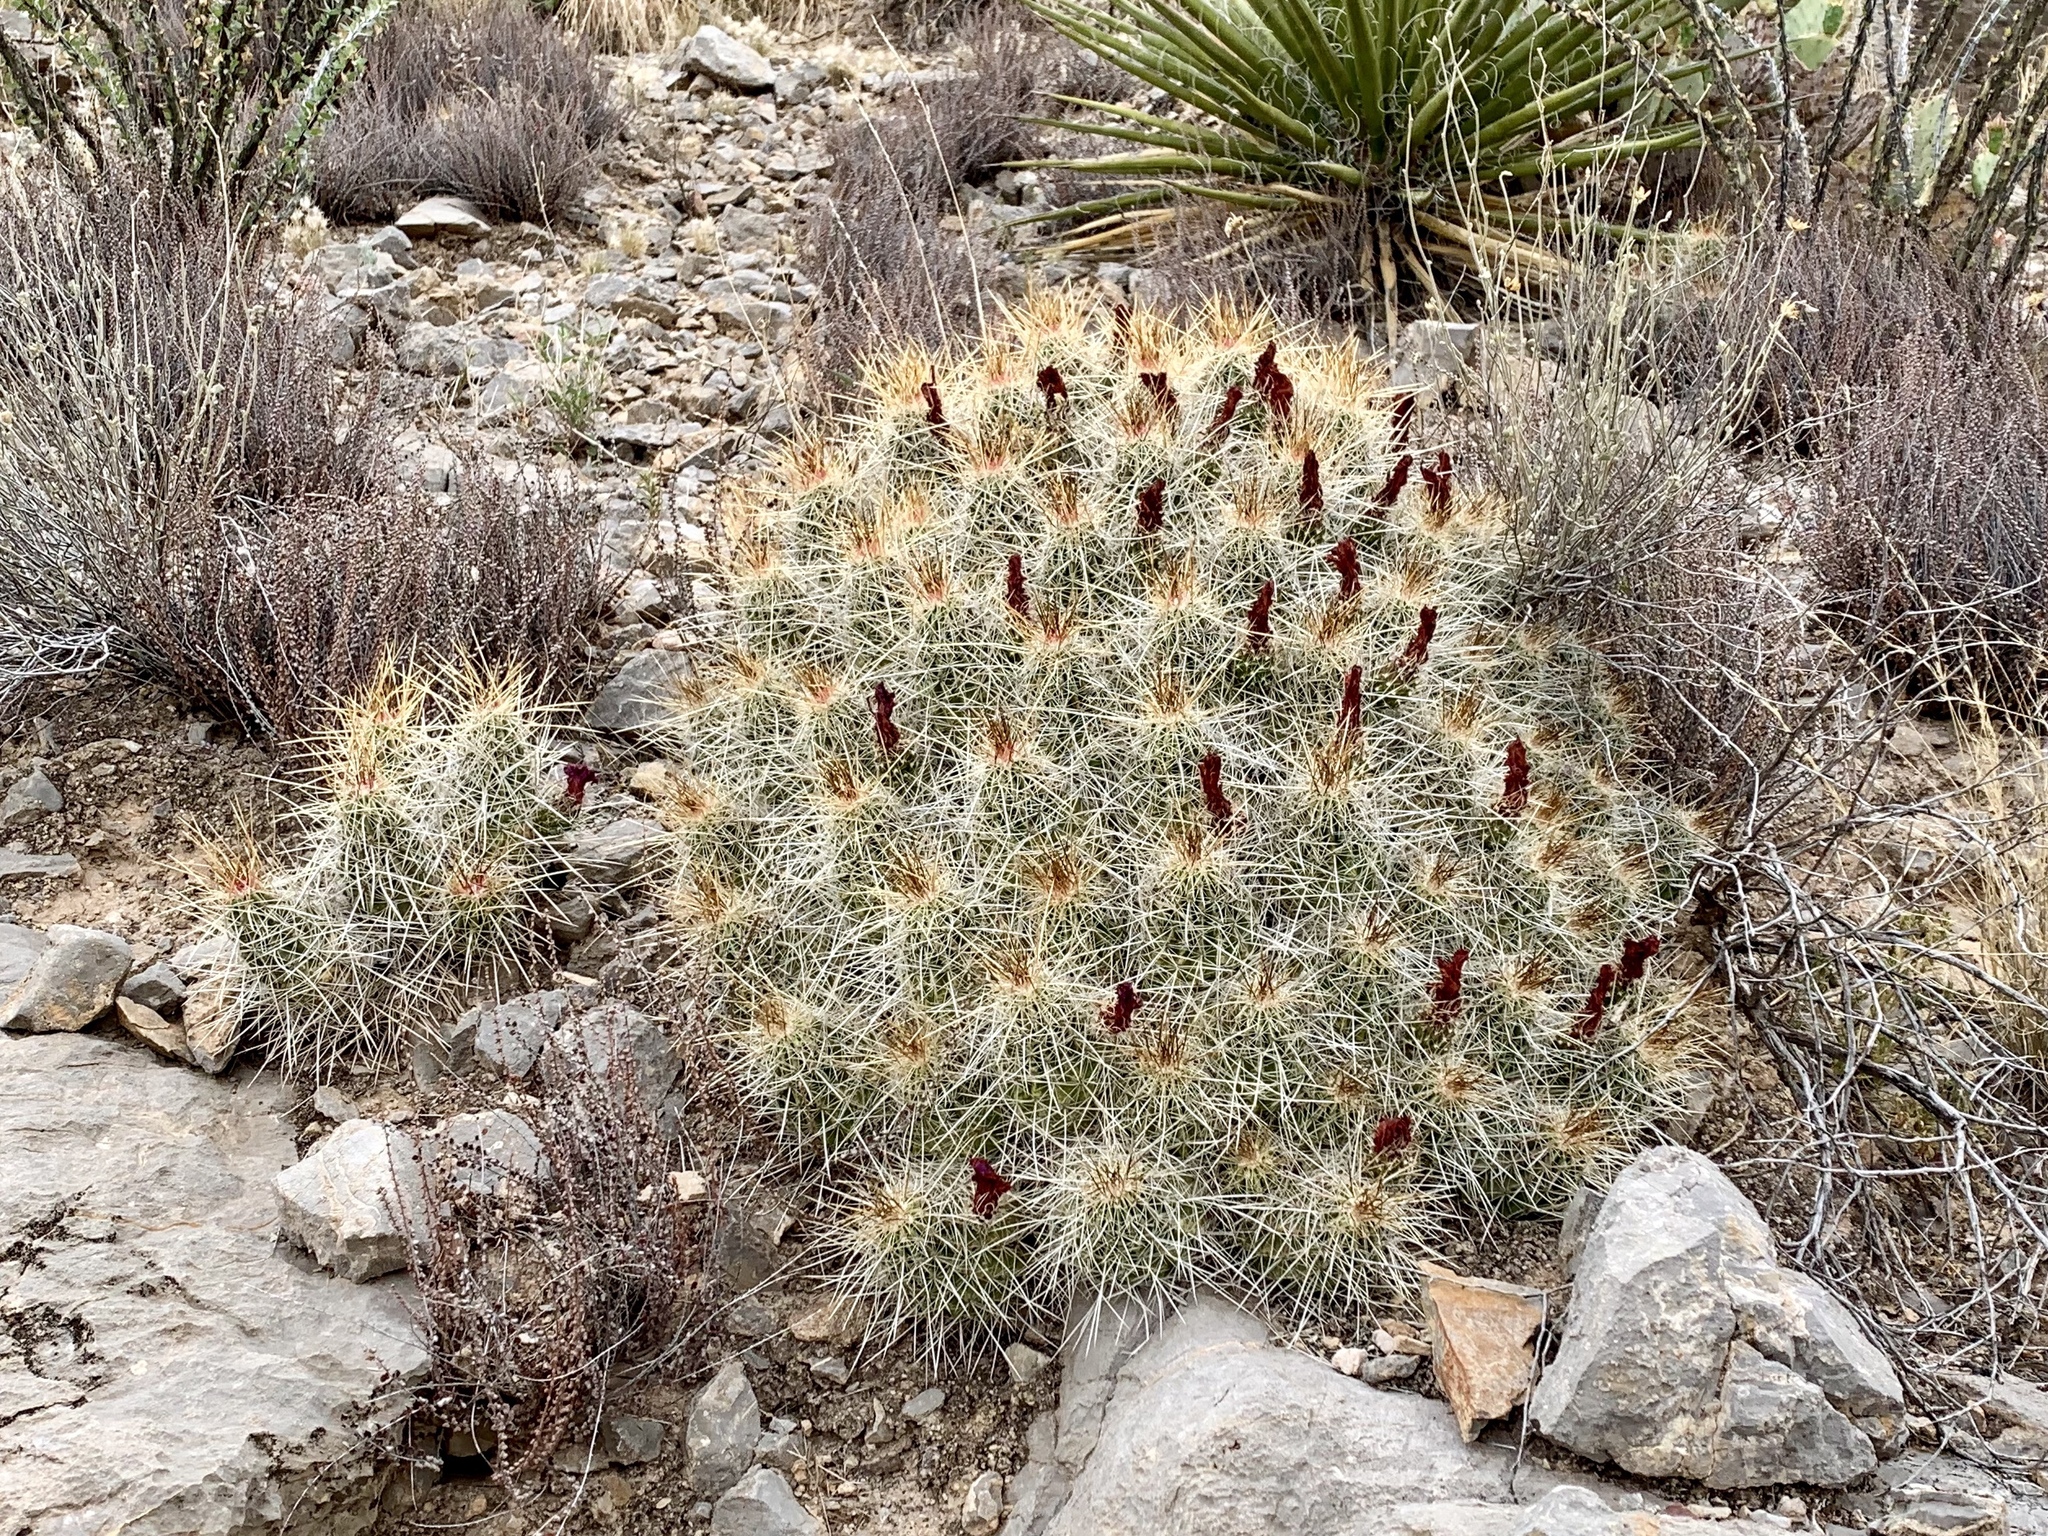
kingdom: Plantae
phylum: Tracheophyta
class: Magnoliopsida
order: Caryophyllales
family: Cactaceae
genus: Echinocereus
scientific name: Echinocereus stramineus
